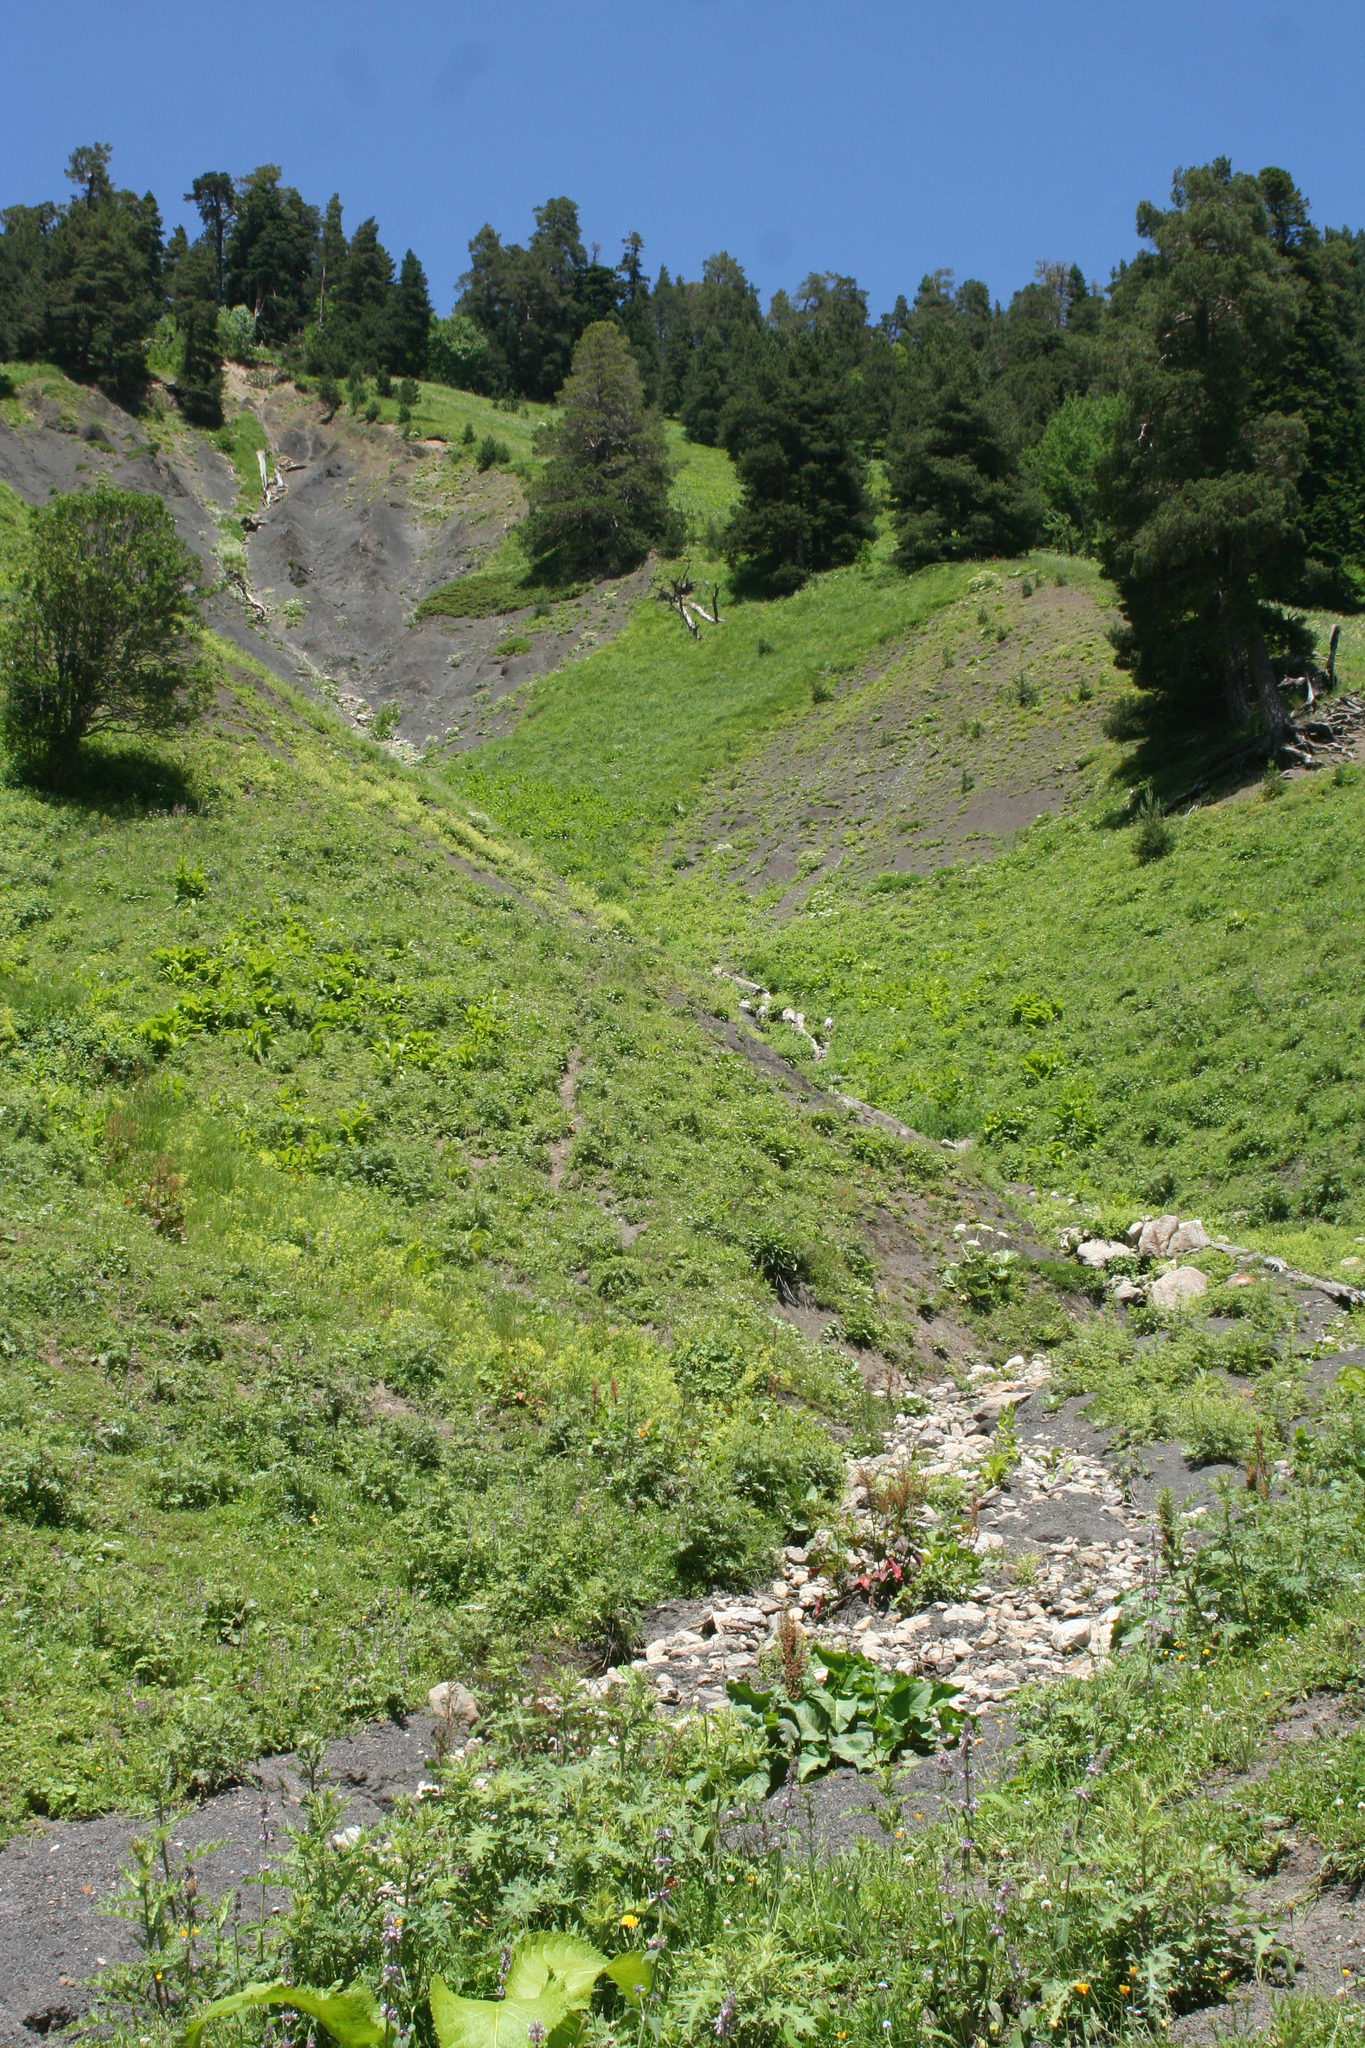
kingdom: Plantae
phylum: Tracheophyta
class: Pinopsida
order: Pinales
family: Pinaceae
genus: Pinus
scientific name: Pinus sylvestris
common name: Scots pine
